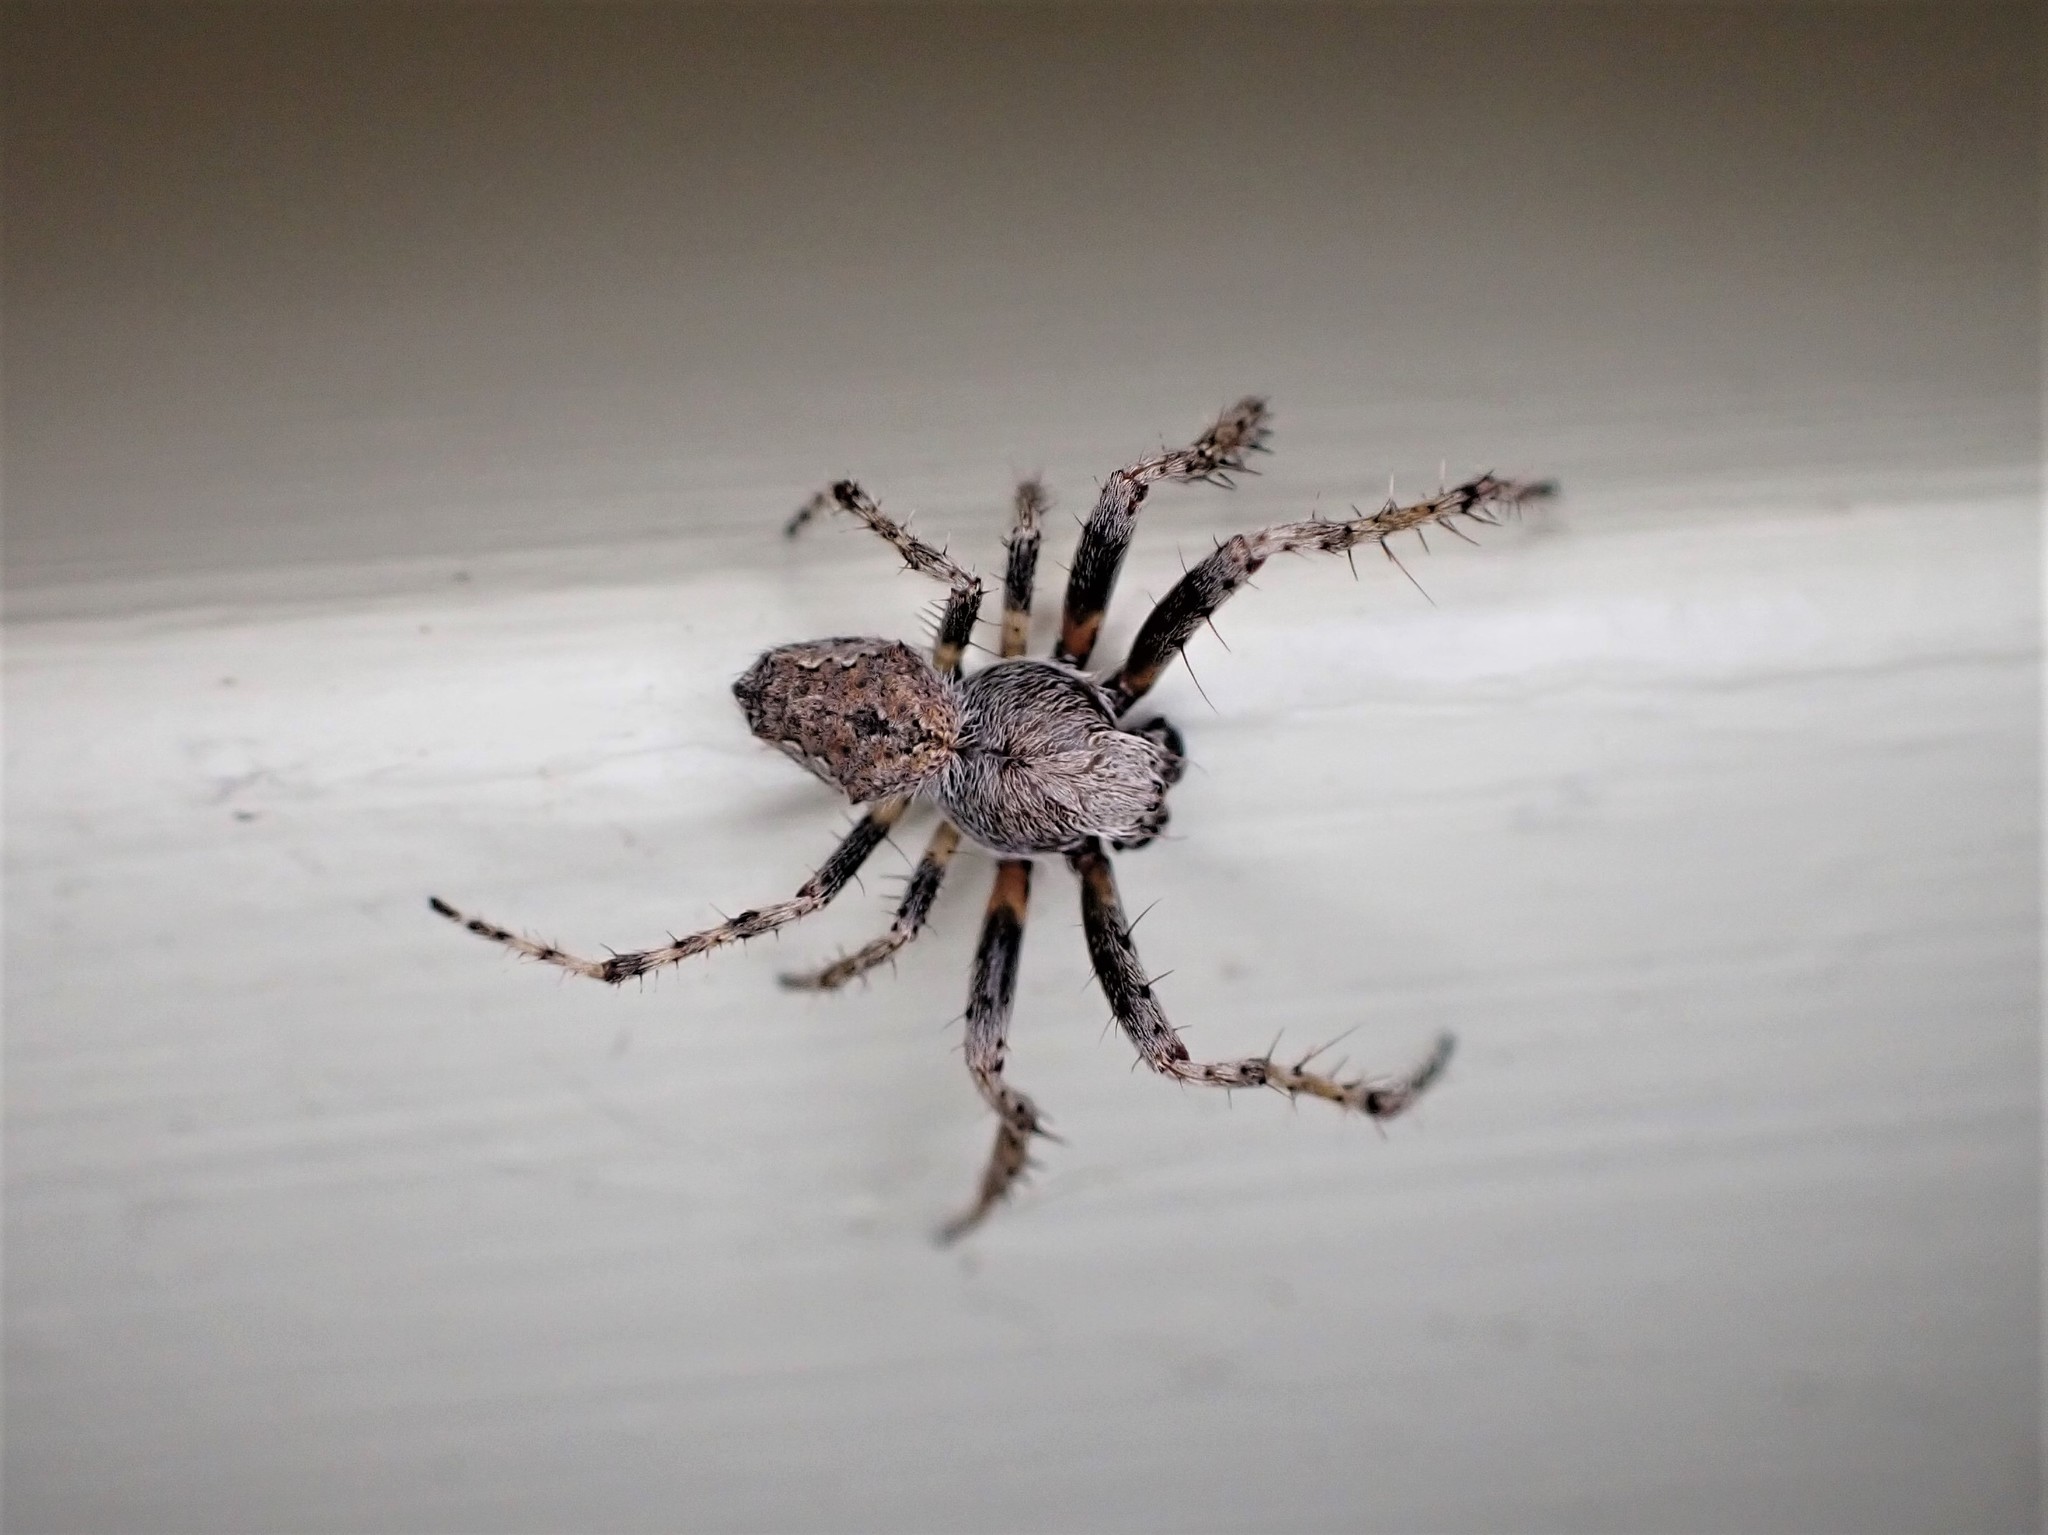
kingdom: Animalia
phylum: Arthropoda
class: Arachnida
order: Araneae
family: Araneidae
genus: Eriophora
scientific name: Eriophora pustulosa
